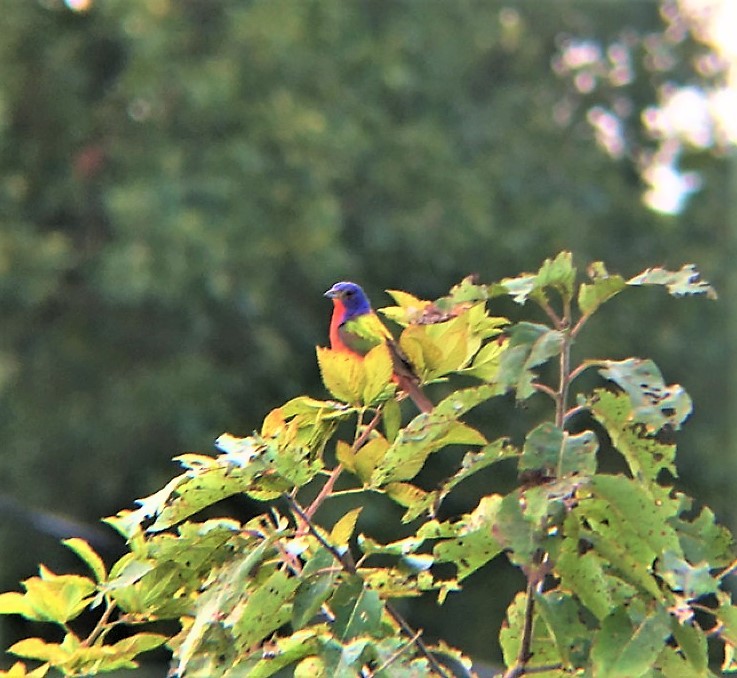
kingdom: Animalia
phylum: Chordata
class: Aves
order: Passeriformes
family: Cardinalidae
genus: Passerina
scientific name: Passerina ciris
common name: Painted bunting
